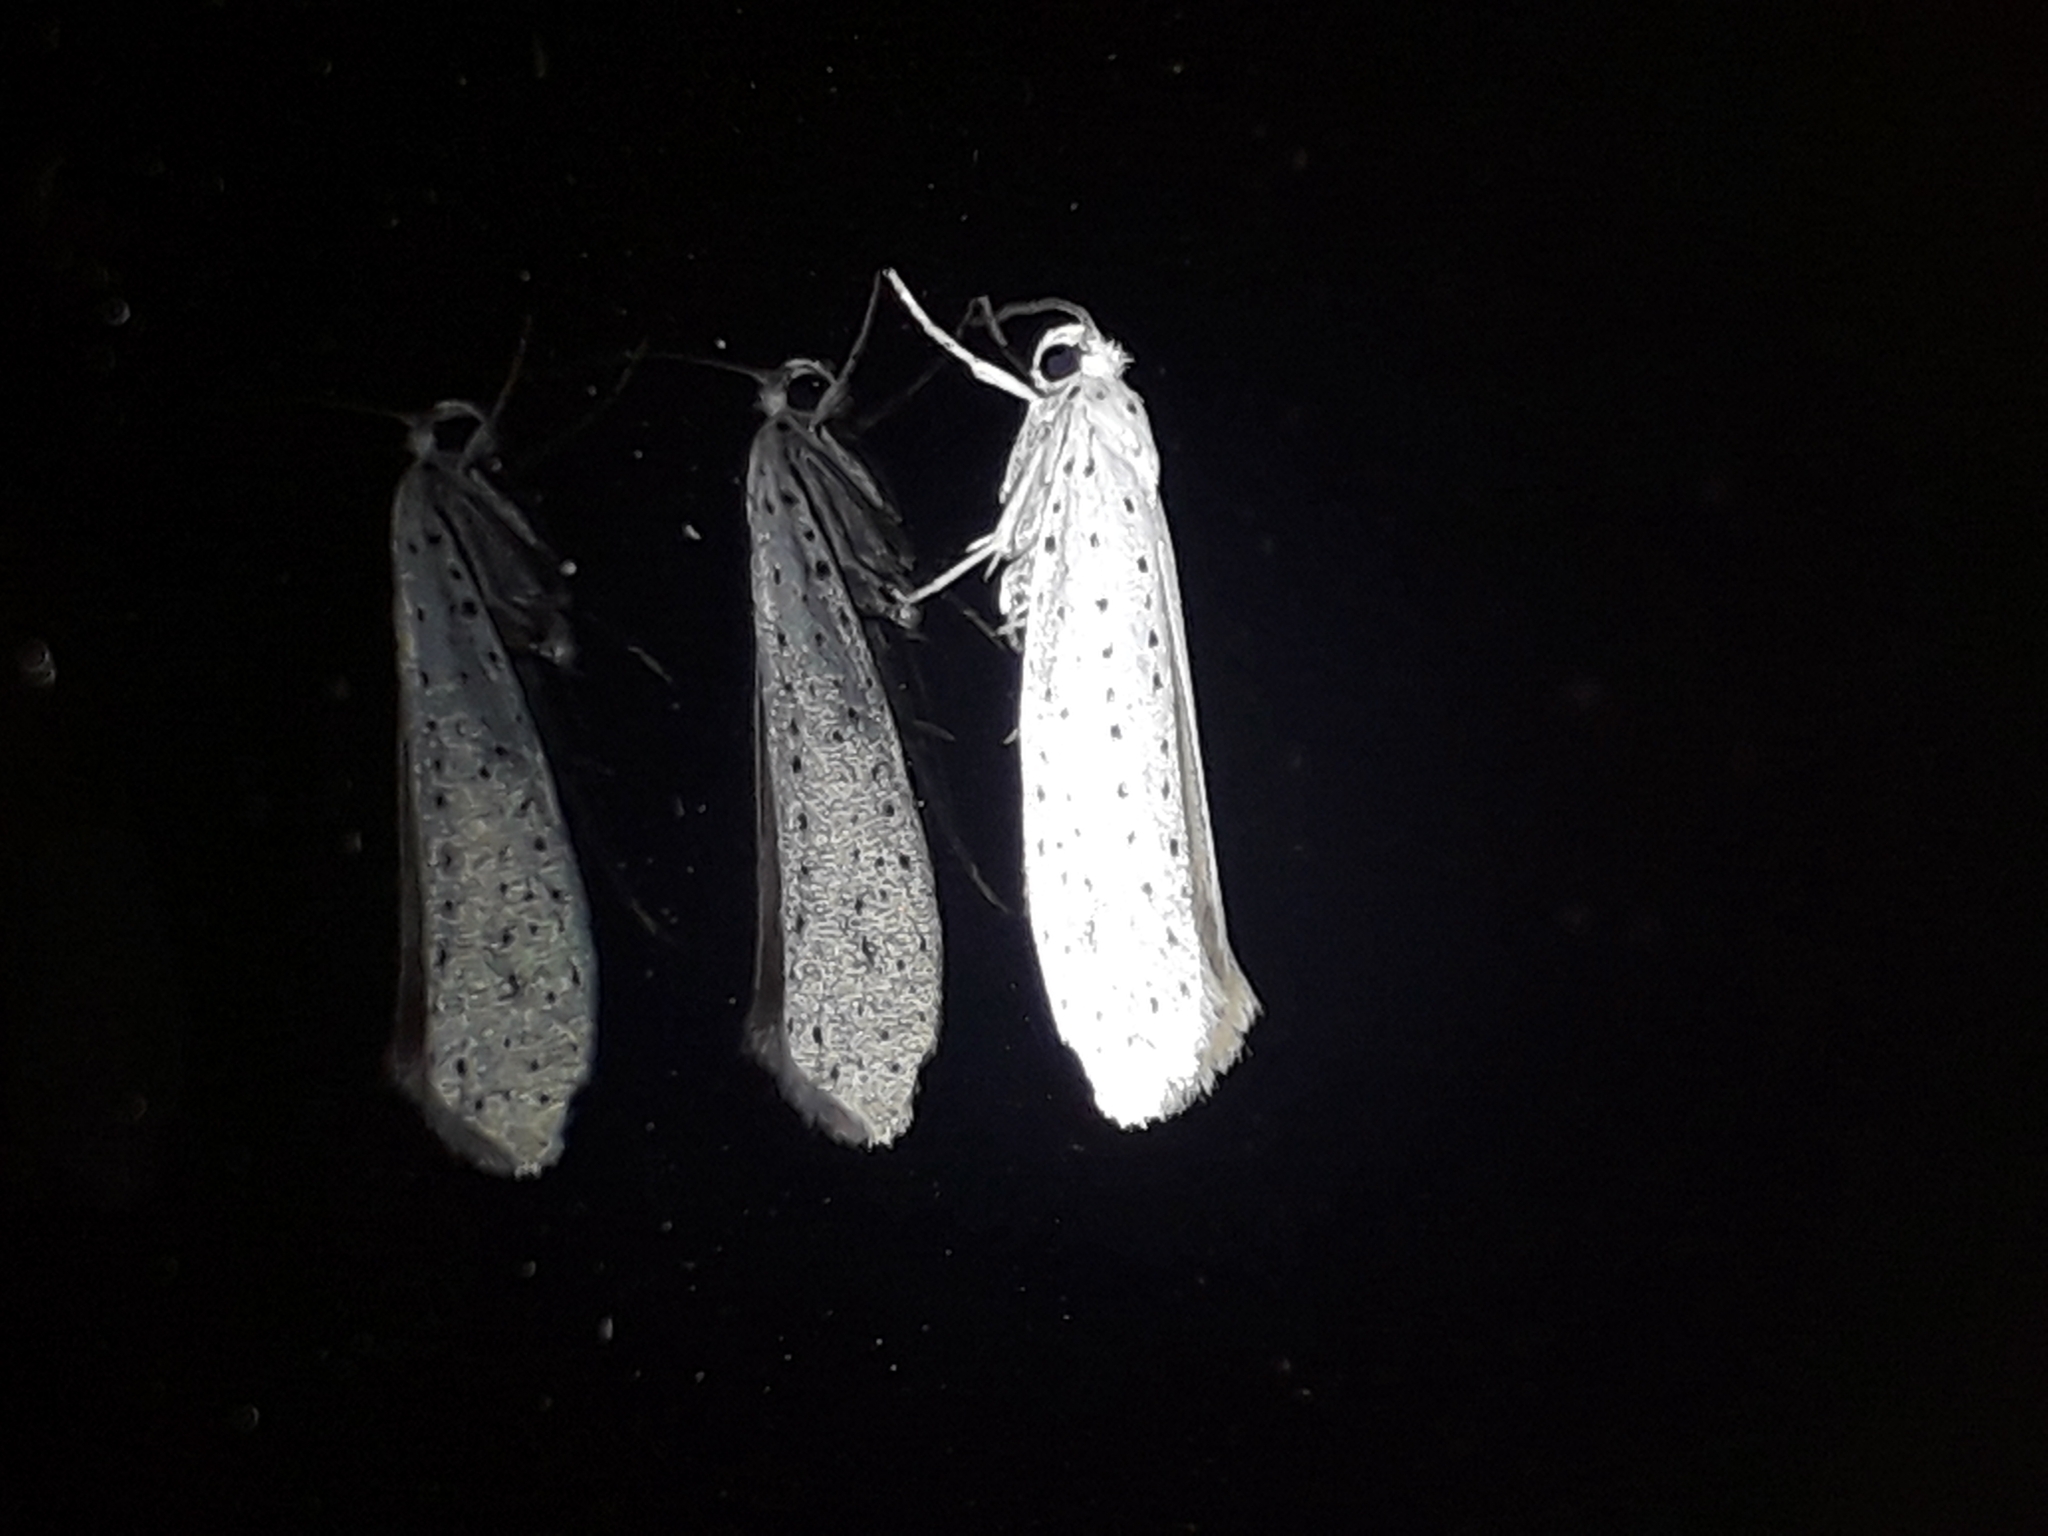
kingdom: Animalia
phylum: Arthropoda
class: Insecta
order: Lepidoptera
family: Yponomeutidae
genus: Yponomeuta
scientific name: Yponomeuta evonymella
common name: Bird-cherry ermine
